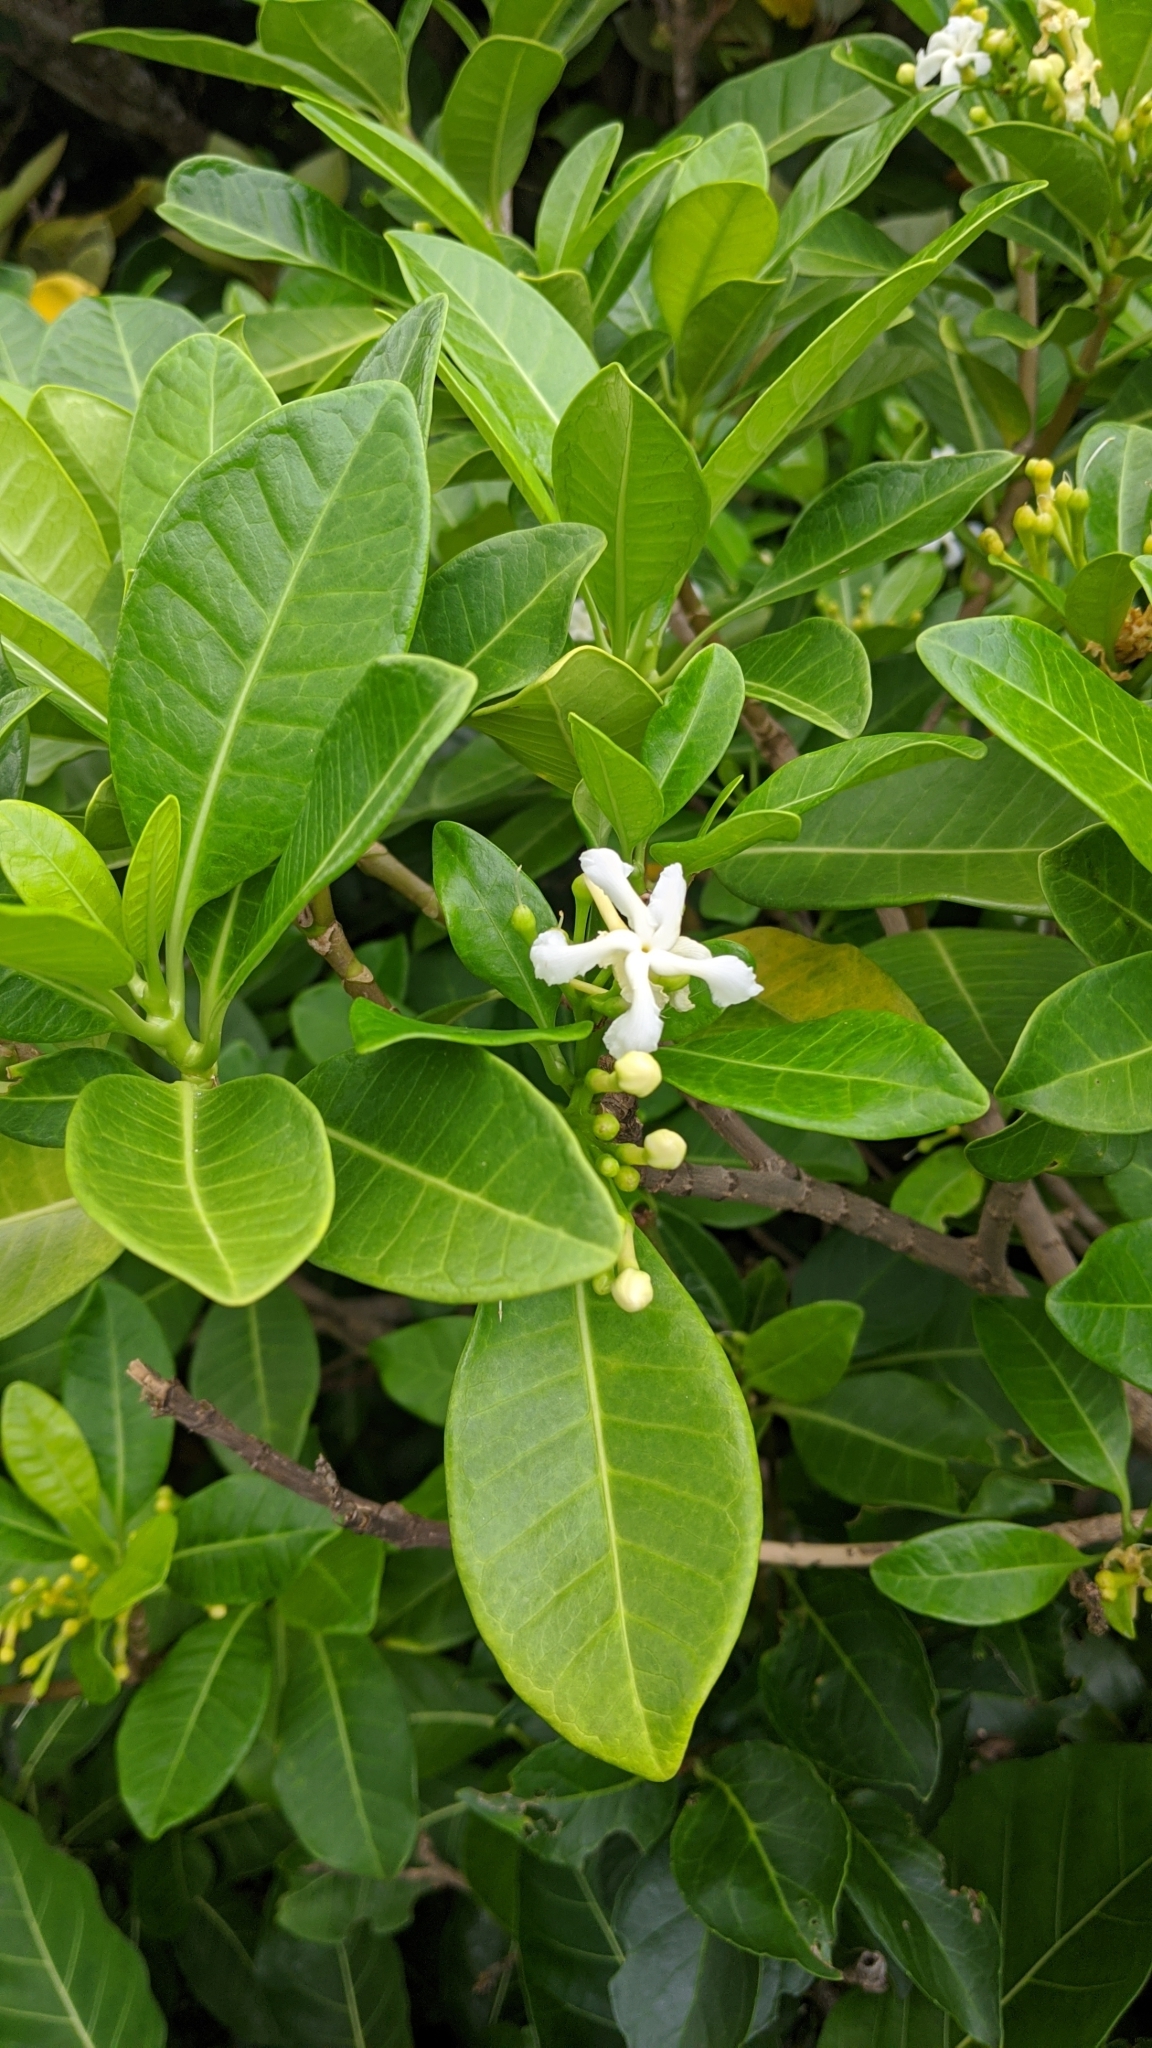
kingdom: Plantae
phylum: Tracheophyta
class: Magnoliopsida
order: Gentianales
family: Apocynaceae
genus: Tabernaemontana
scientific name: Tabernaemontana pandacaqui
